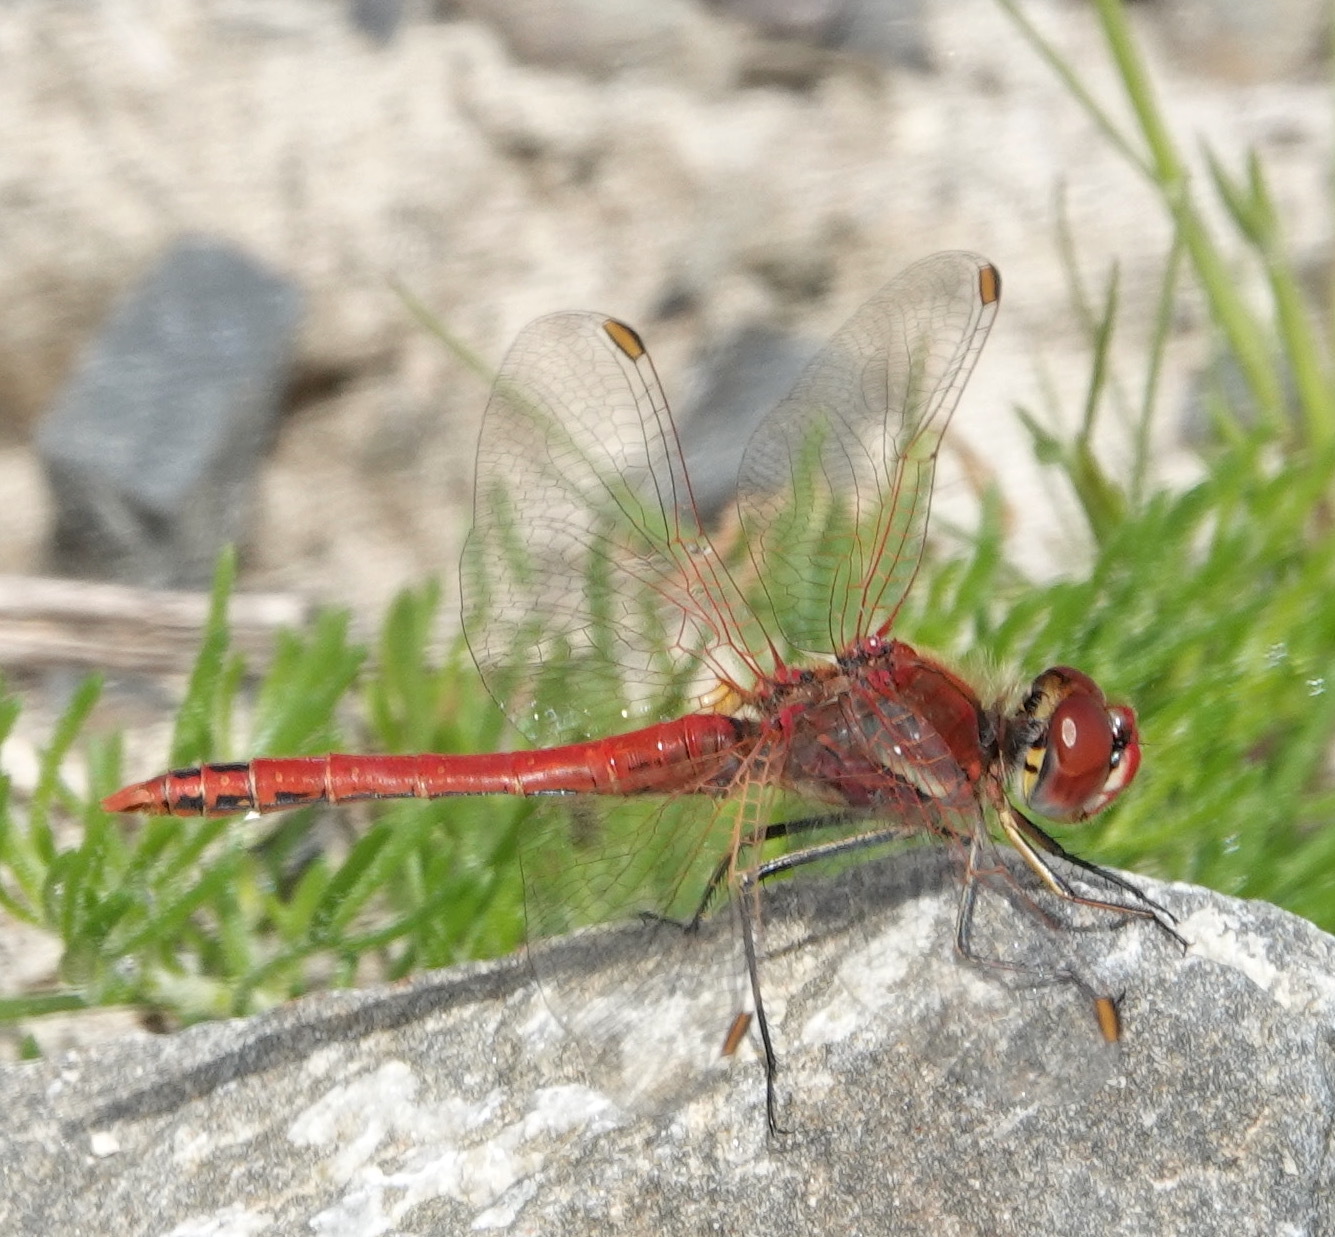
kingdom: Animalia
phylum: Arthropoda
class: Insecta
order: Odonata
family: Libellulidae
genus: Sympetrum
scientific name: Sympetrum fonscolombii
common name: Red-veined darter
